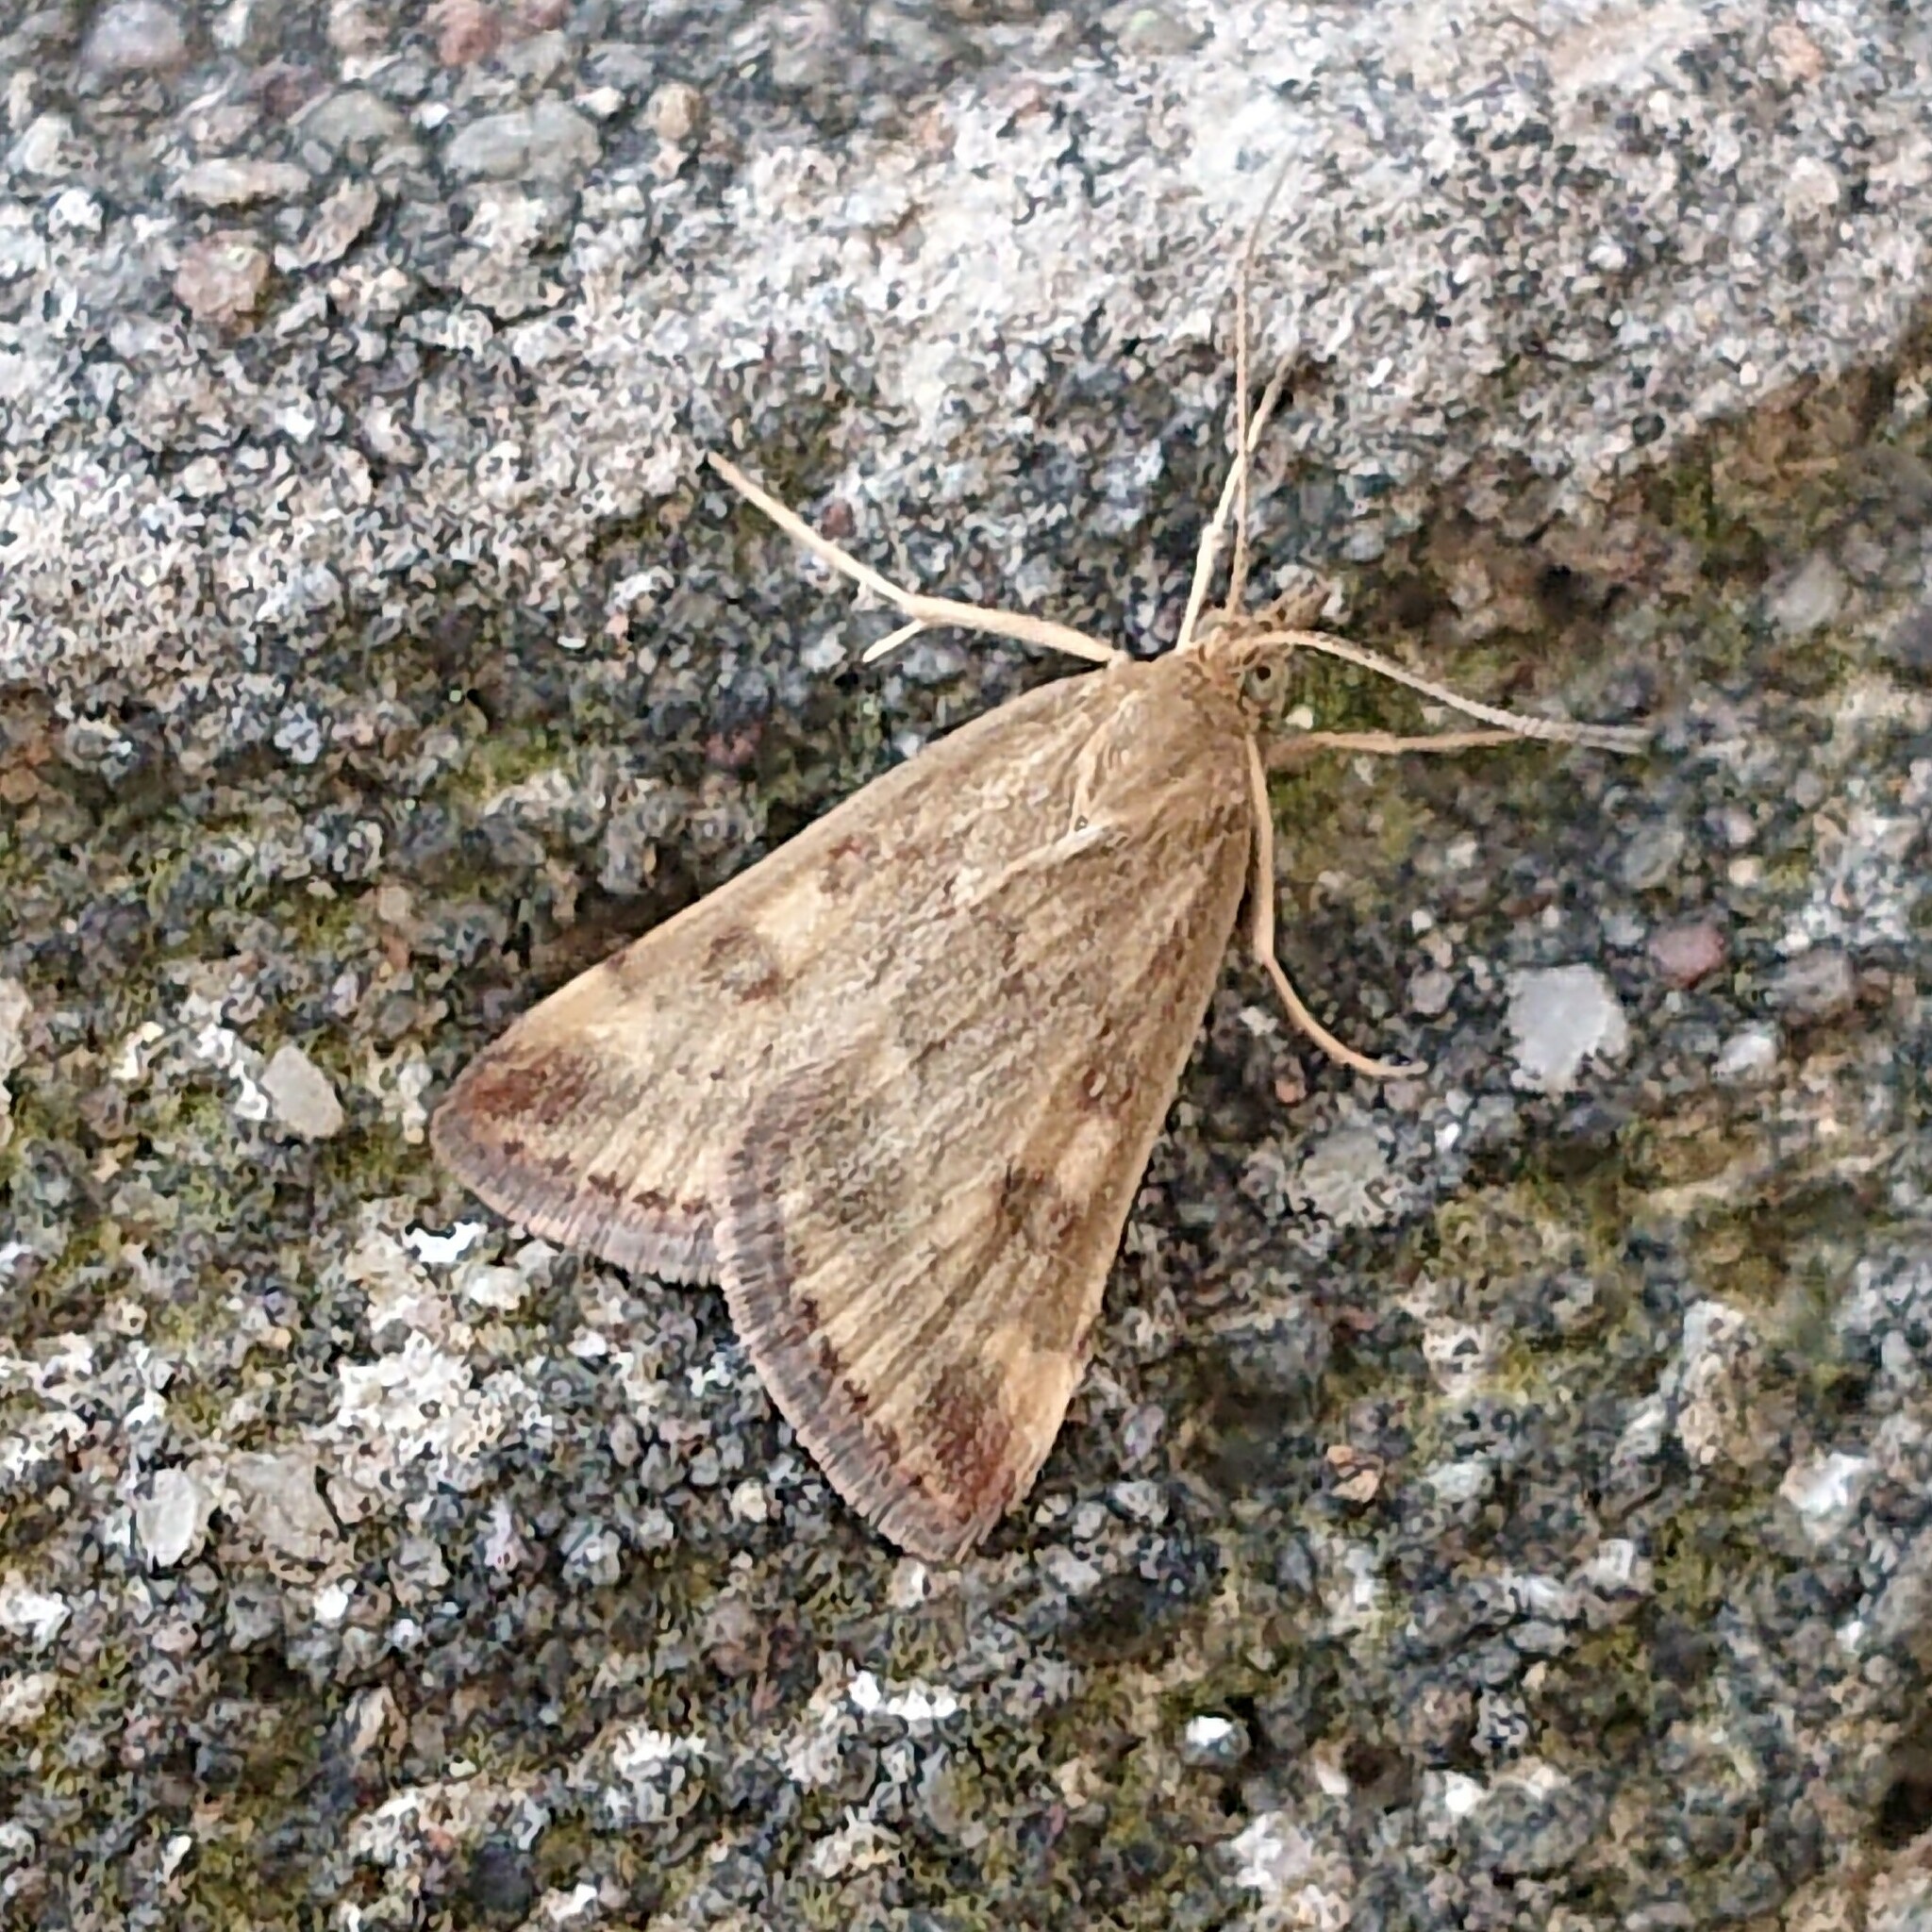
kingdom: Animalia
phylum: Arthropoda
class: Insecta
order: Lepidoptera
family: Crambidae
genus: Pyrausta
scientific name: Pyrausta despicata
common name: Straw-barred pearl
